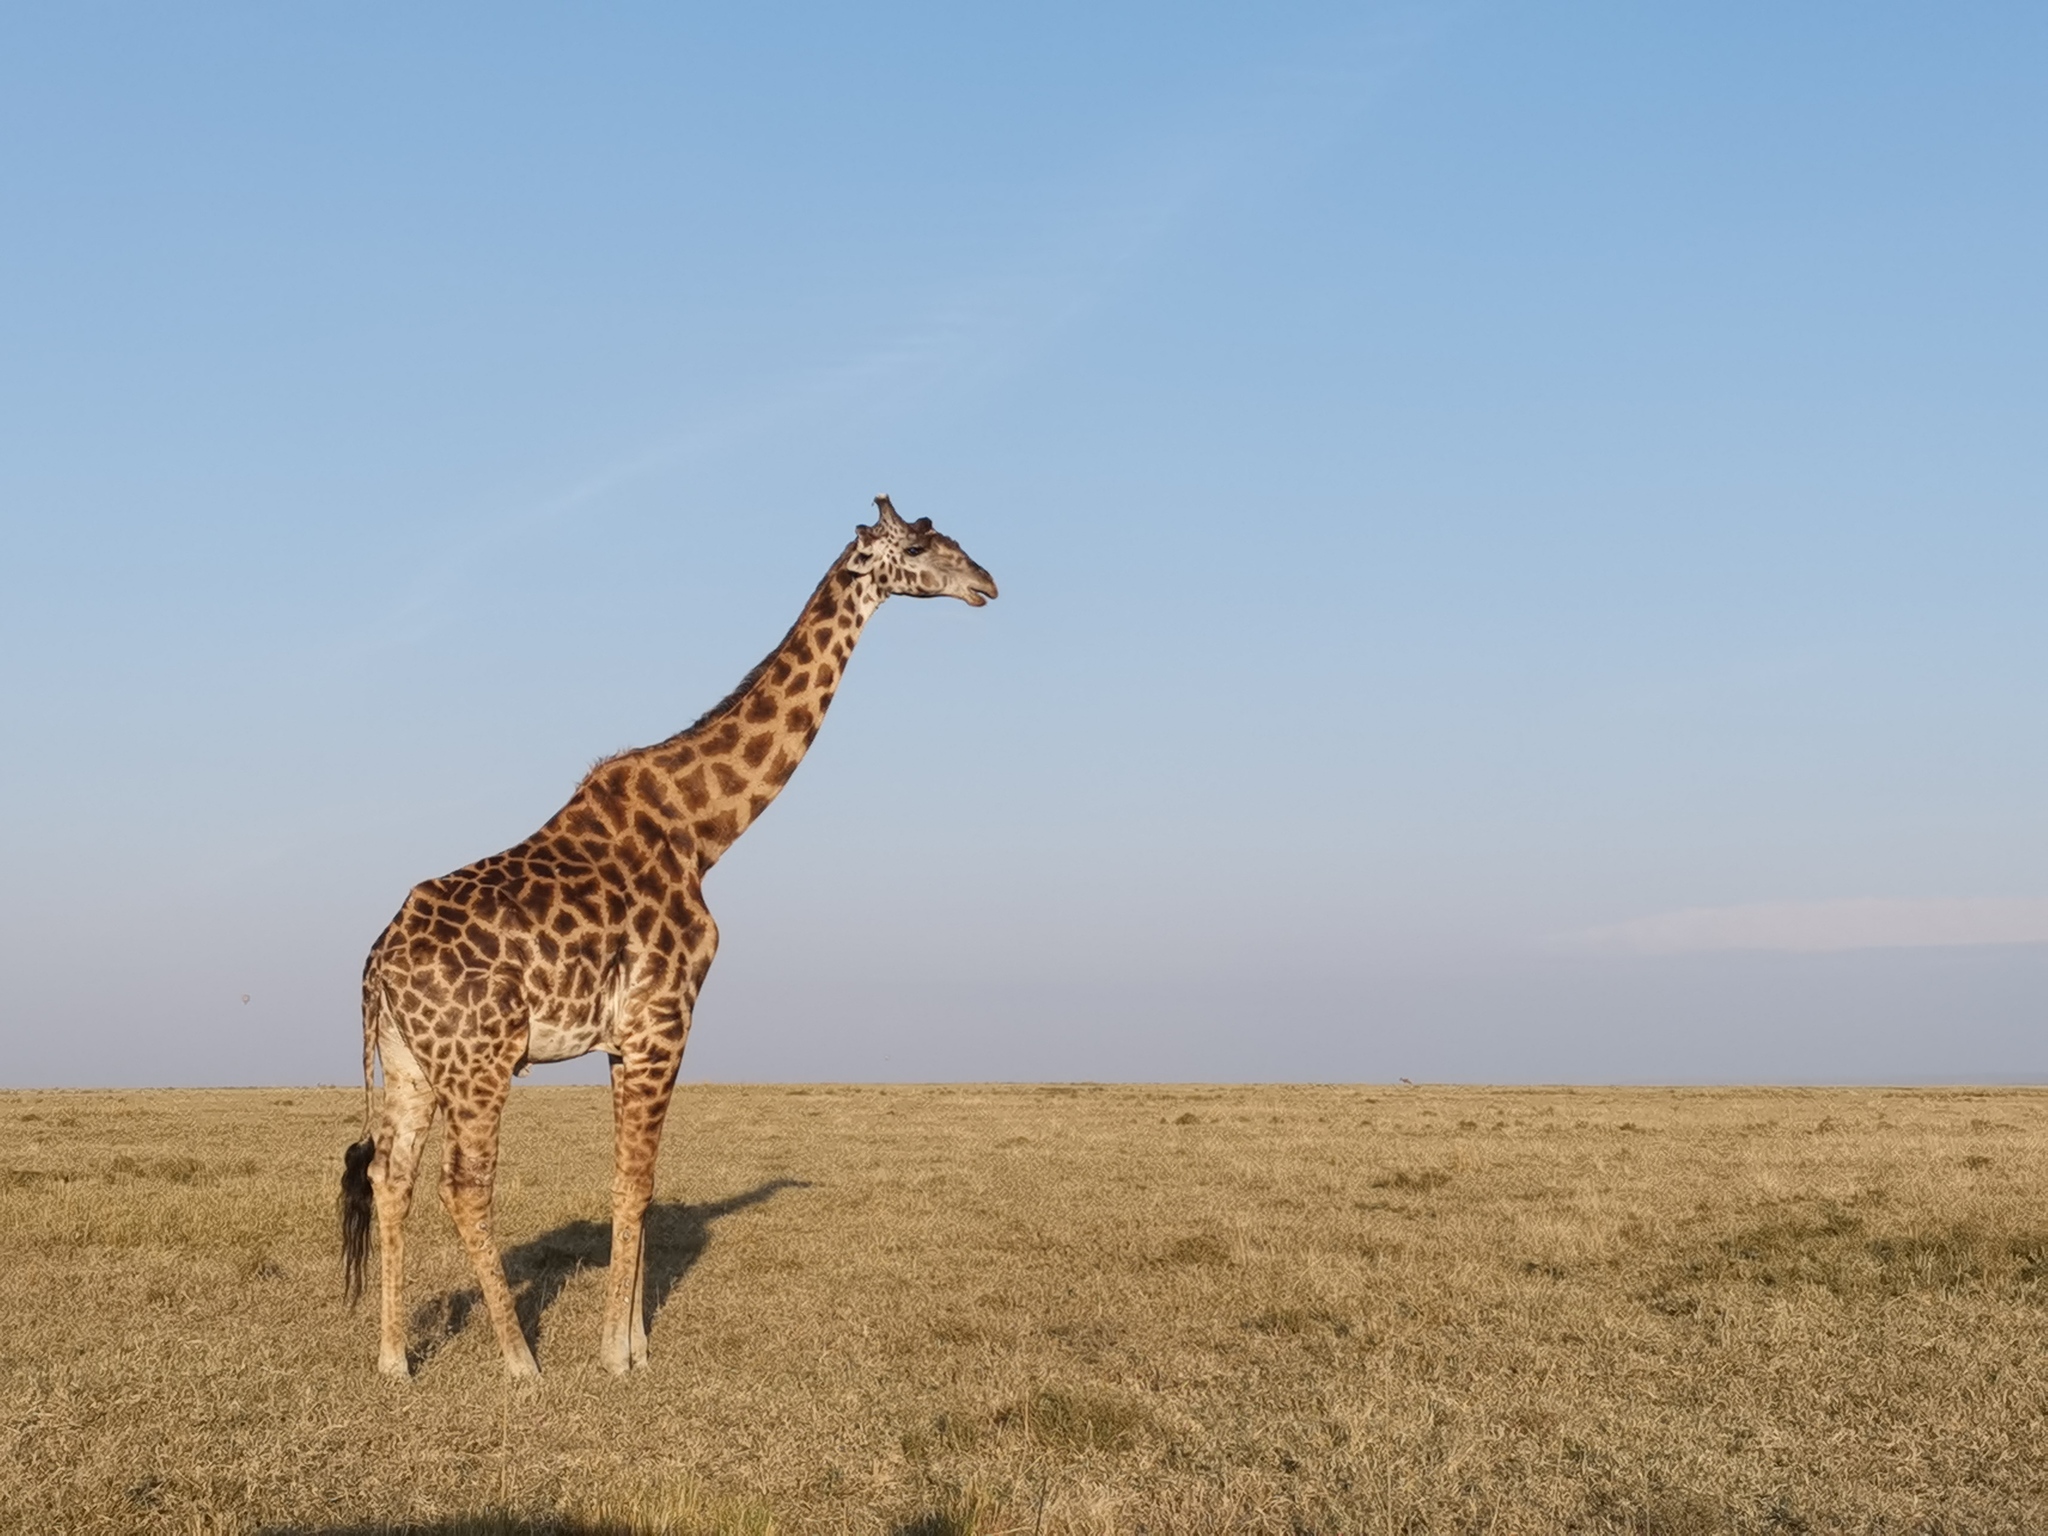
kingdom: Animalia
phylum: Chordata
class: Mammalia
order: Artiodactyla
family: Giraffidae
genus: Giraffa
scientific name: Giraffa tippelskirchi
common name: Masai giraffe
